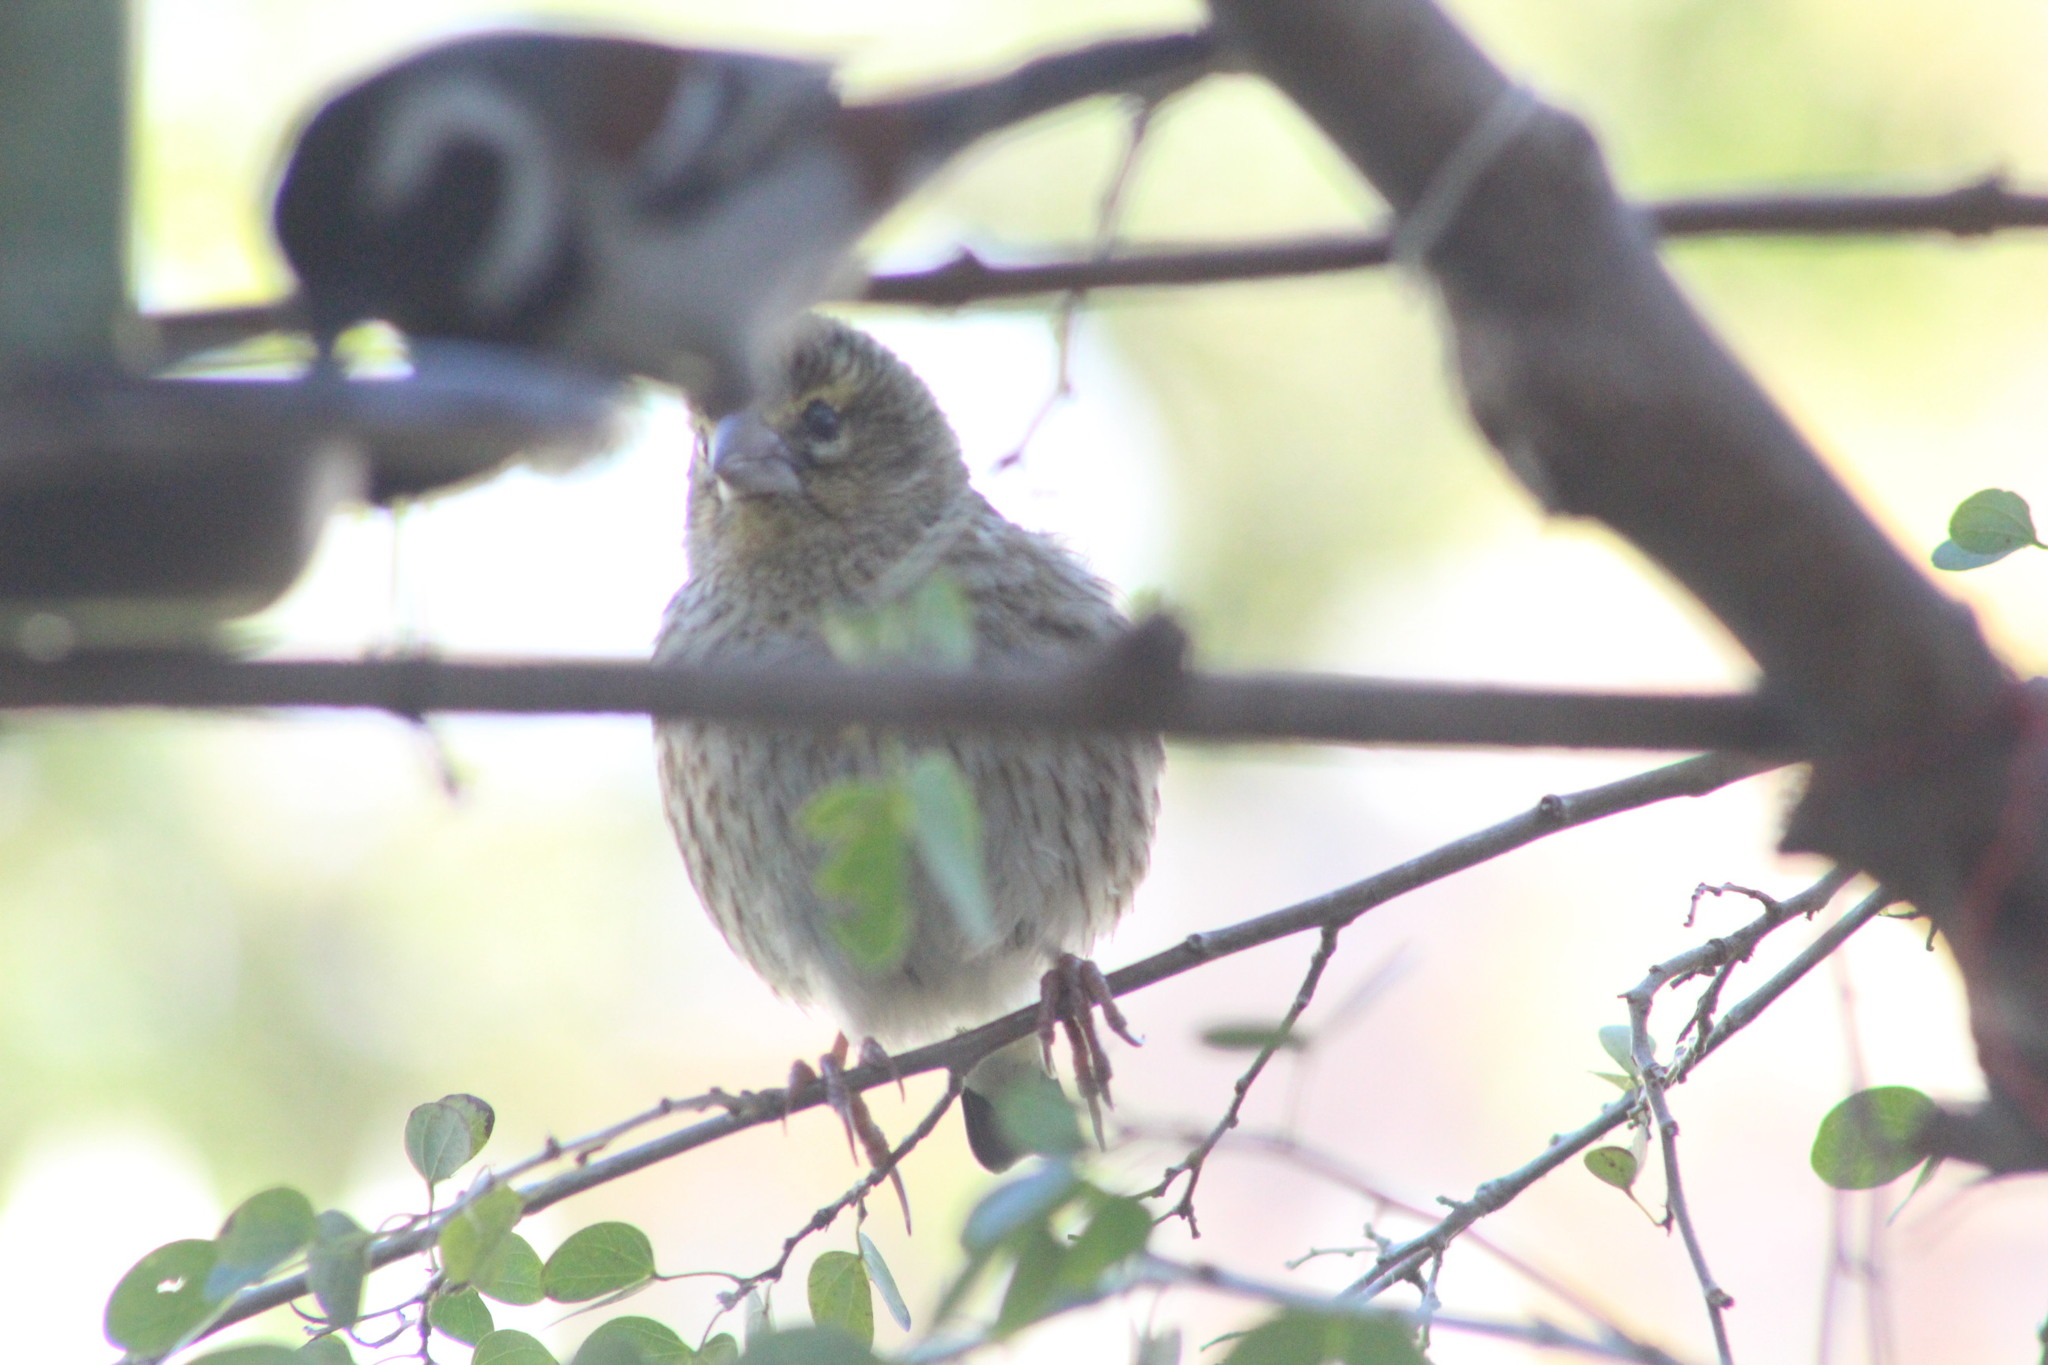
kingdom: Animalia
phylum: Chordata
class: Aves
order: Passeriformes
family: Ploceidae
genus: Euplectes
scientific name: Euplectes orix
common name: Southern red bishop
